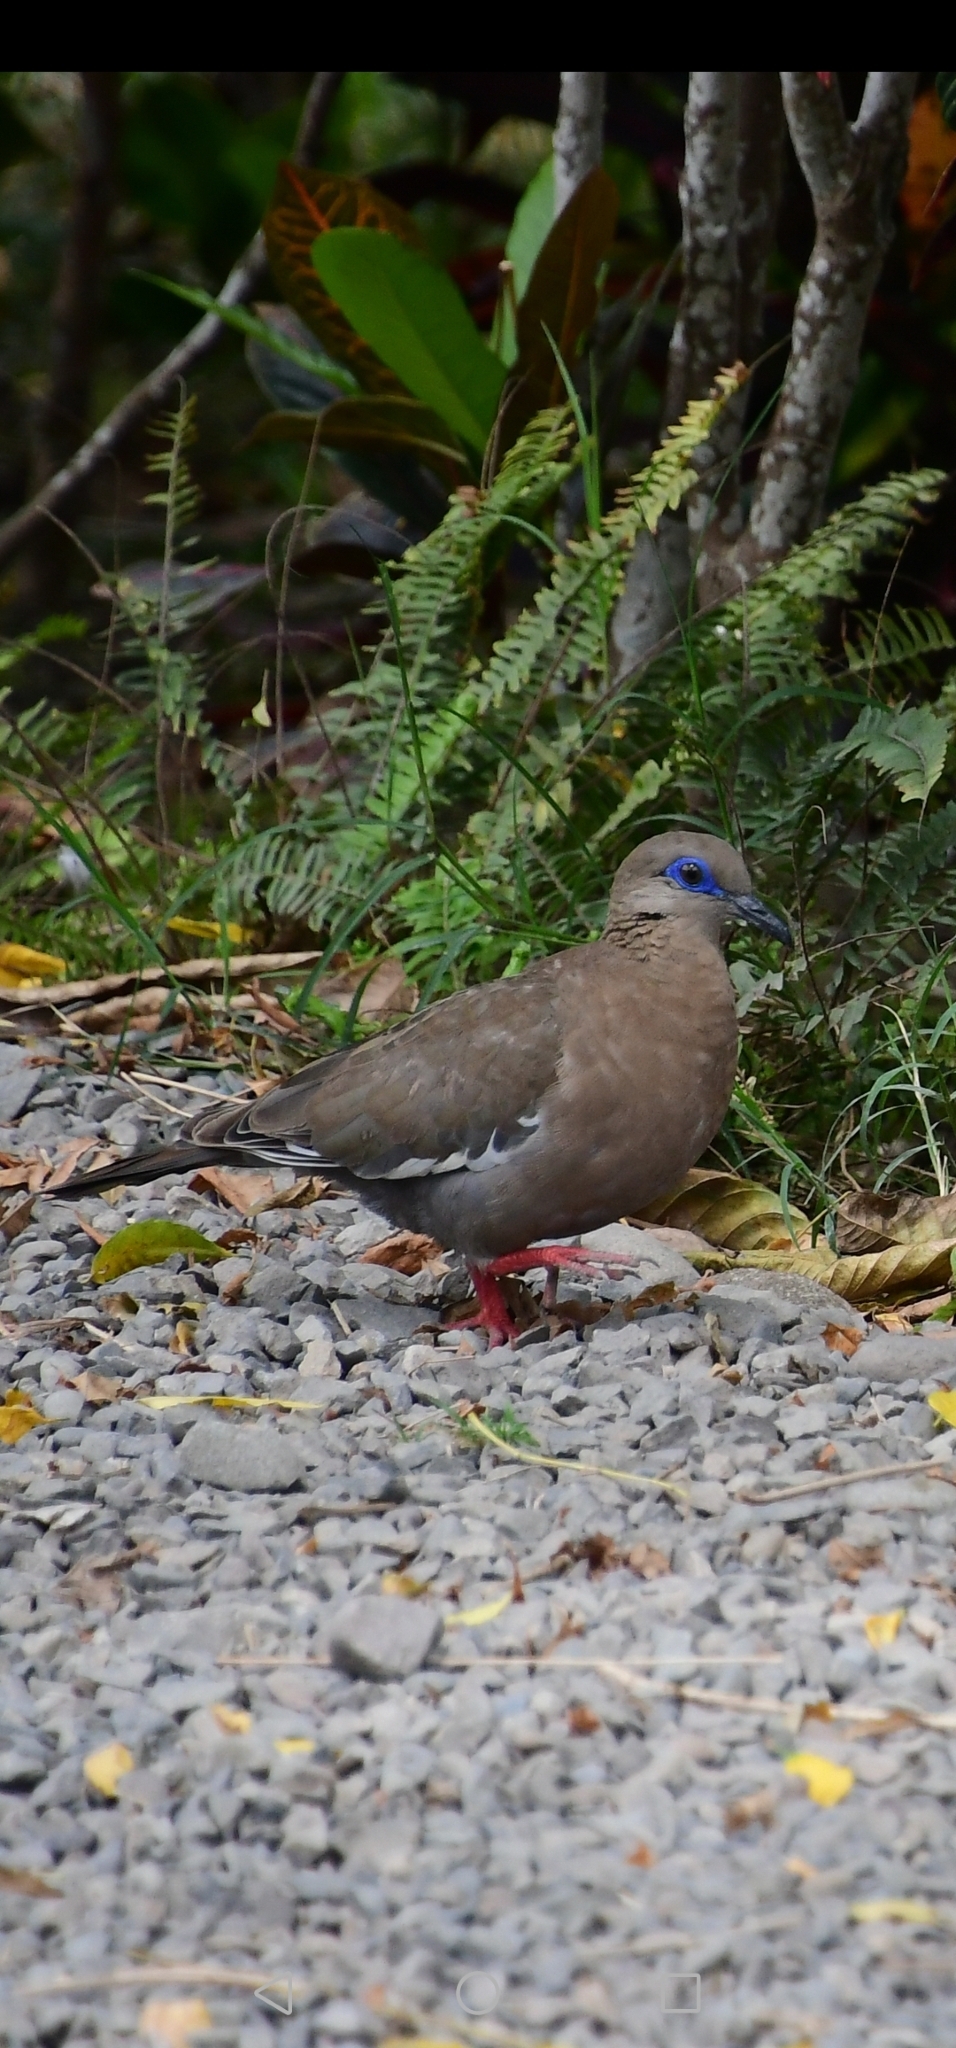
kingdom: Animalia
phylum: Chordata
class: Aves
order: Columbiformes
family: Columbidae
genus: Zenaida
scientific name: Zenaida meloda
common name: West peruvian dove
